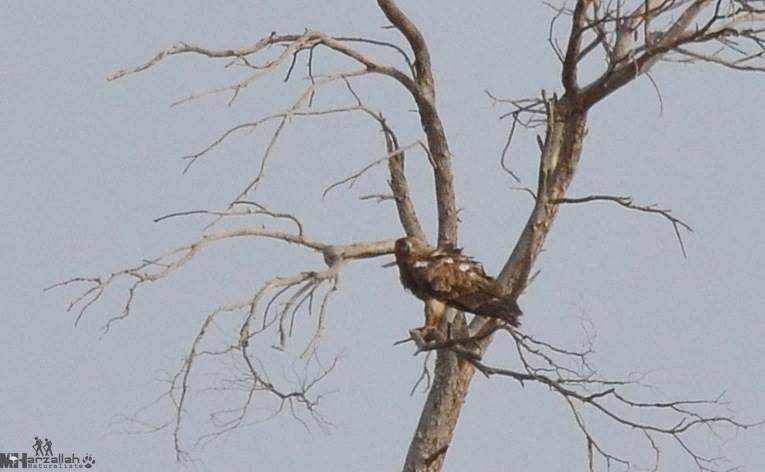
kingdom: Animalia
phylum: Chordata
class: Aves
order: Accipitriformes
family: Accipitridae
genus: Aquila
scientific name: Aquila rapax
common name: Tawny eagle
